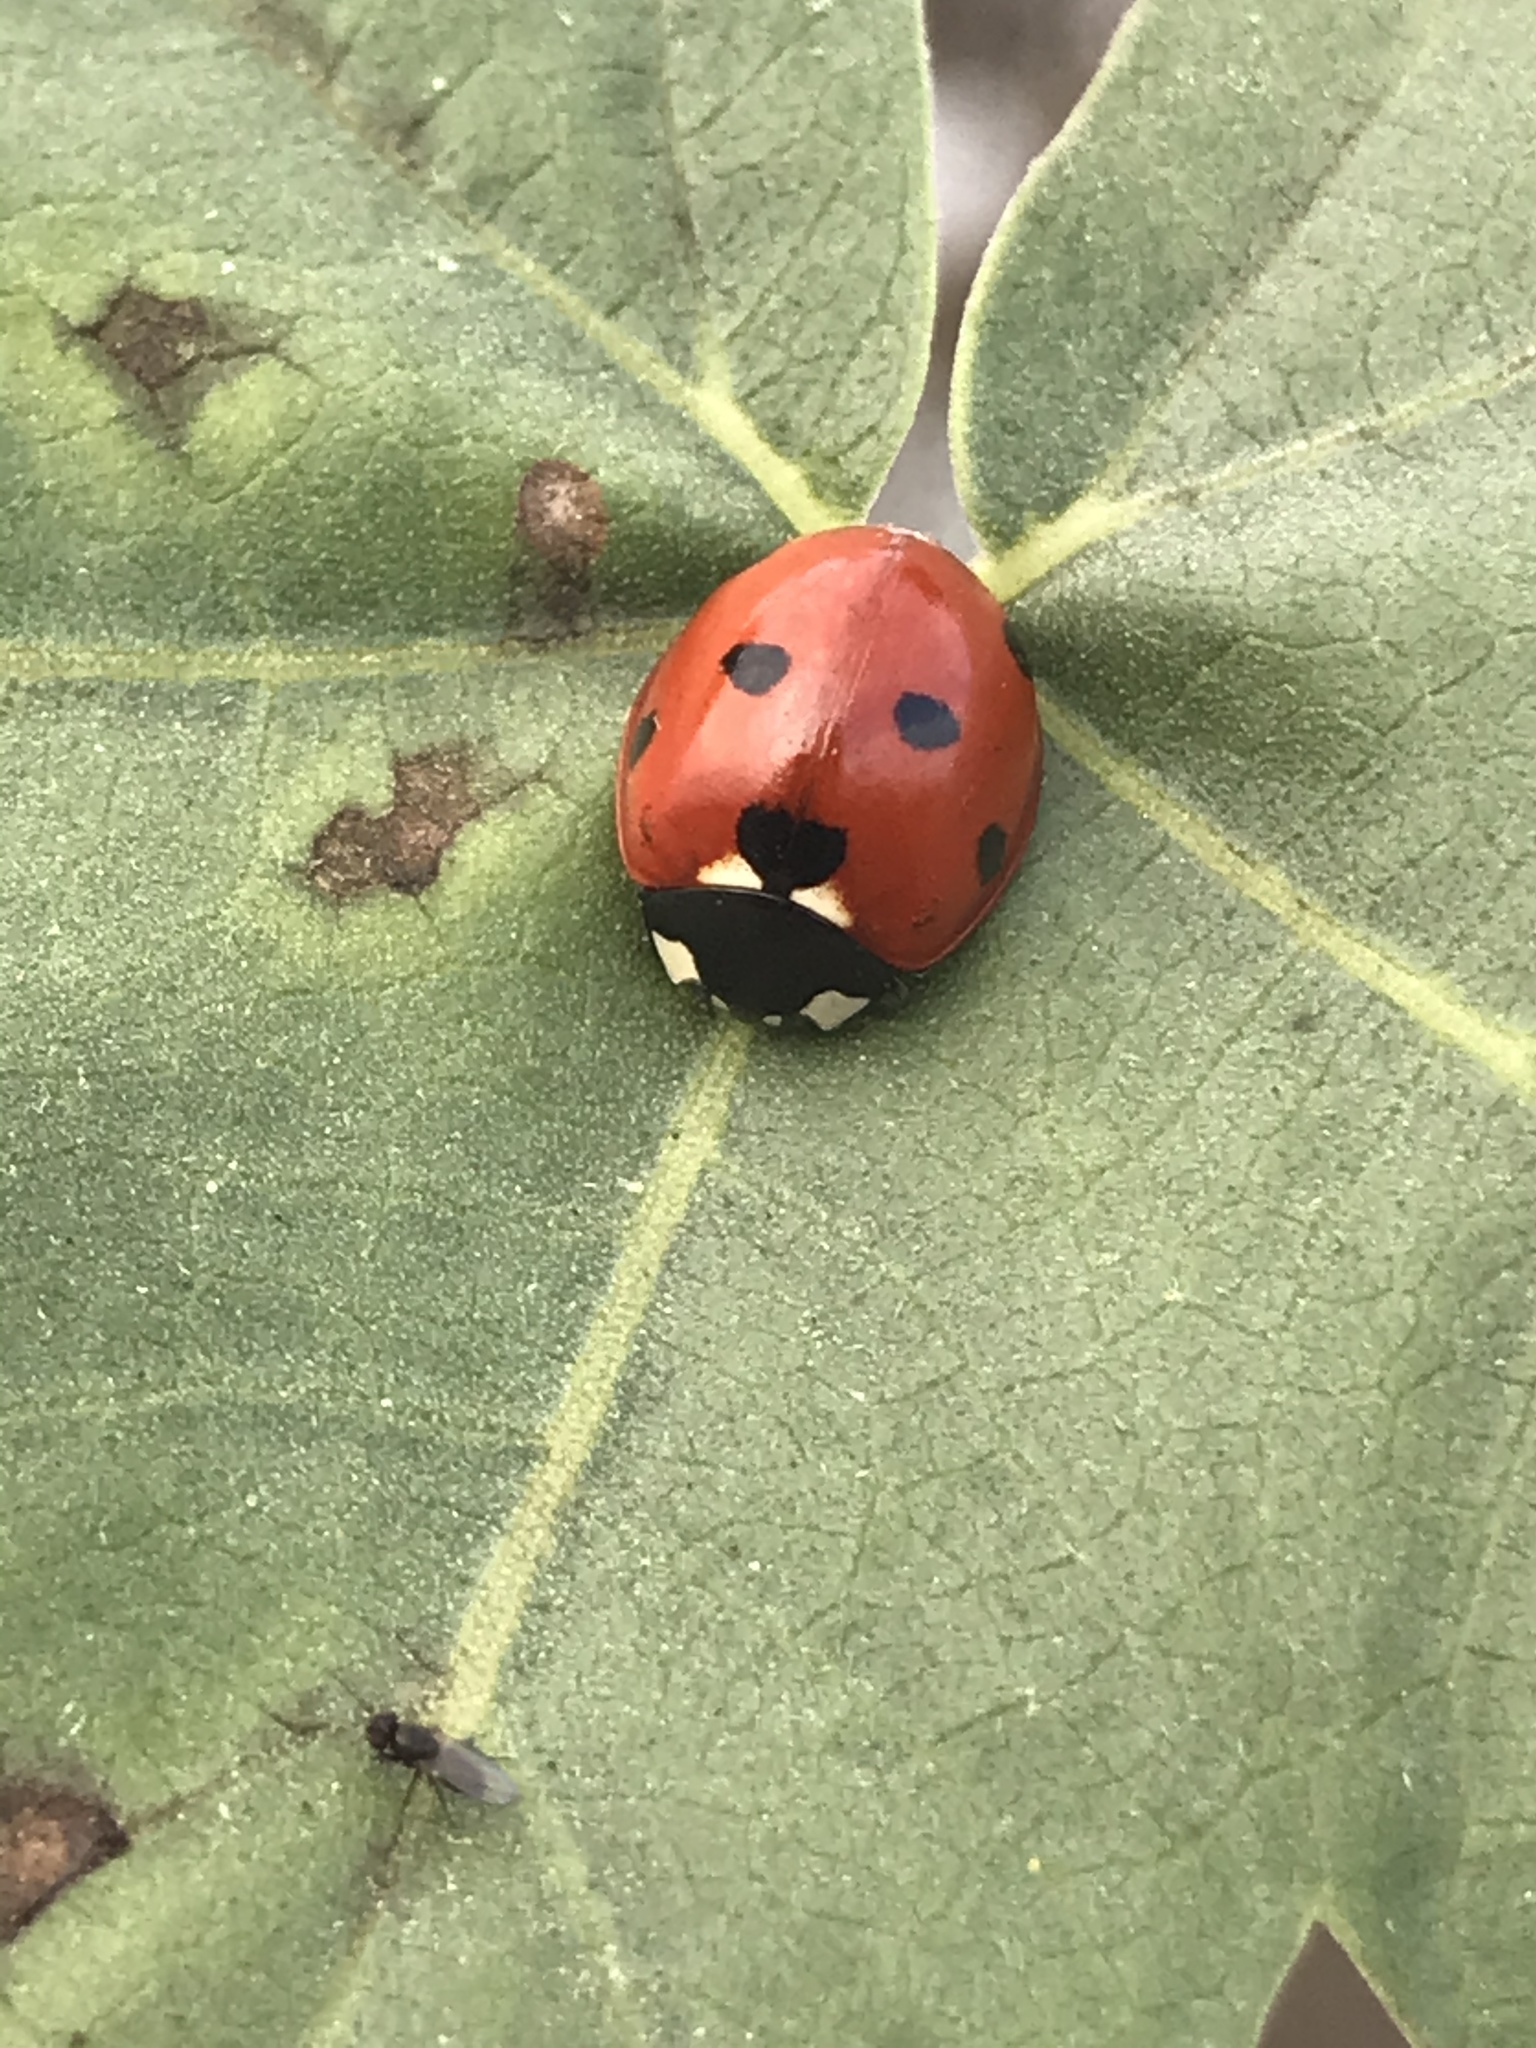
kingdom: Animalia
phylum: Arthropoda
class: Insecta
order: Coleoptera
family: Coccinellidae
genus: Coccinella
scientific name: Coccinella septempunctata
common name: Sevenspotted lady beetle
